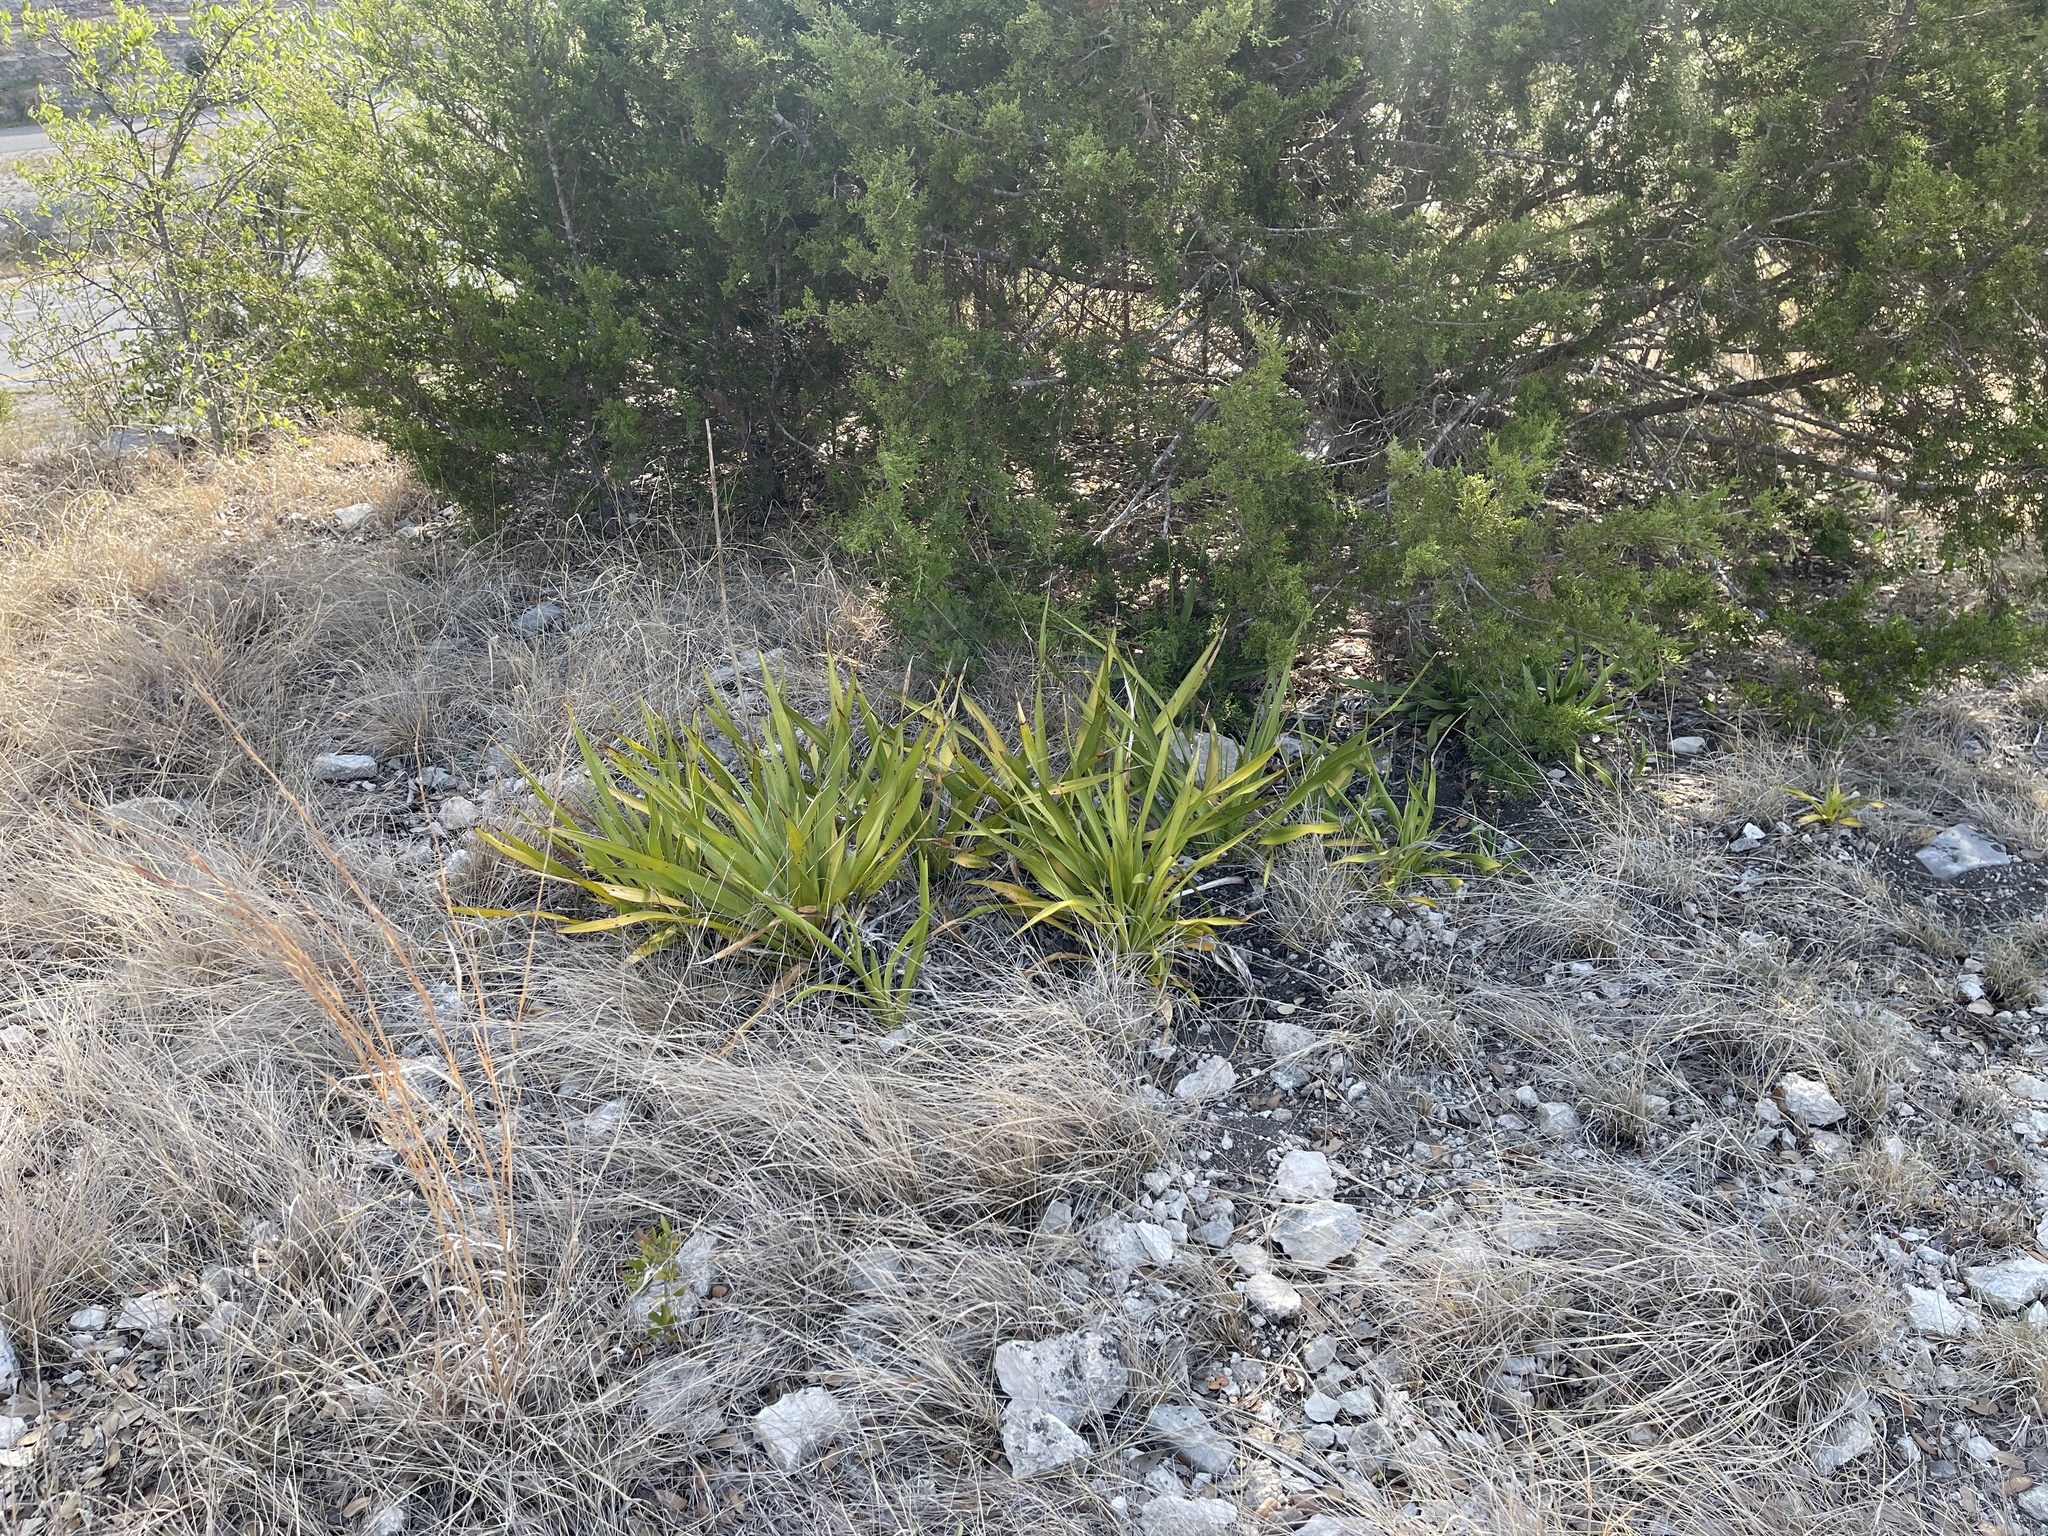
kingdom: Plantae
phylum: Tracheophyta
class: Liliopsida
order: Asparagales
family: Asparagaceae
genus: Yucca
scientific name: Yucca rupicola
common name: Twisted-leaf spanish-dagger
